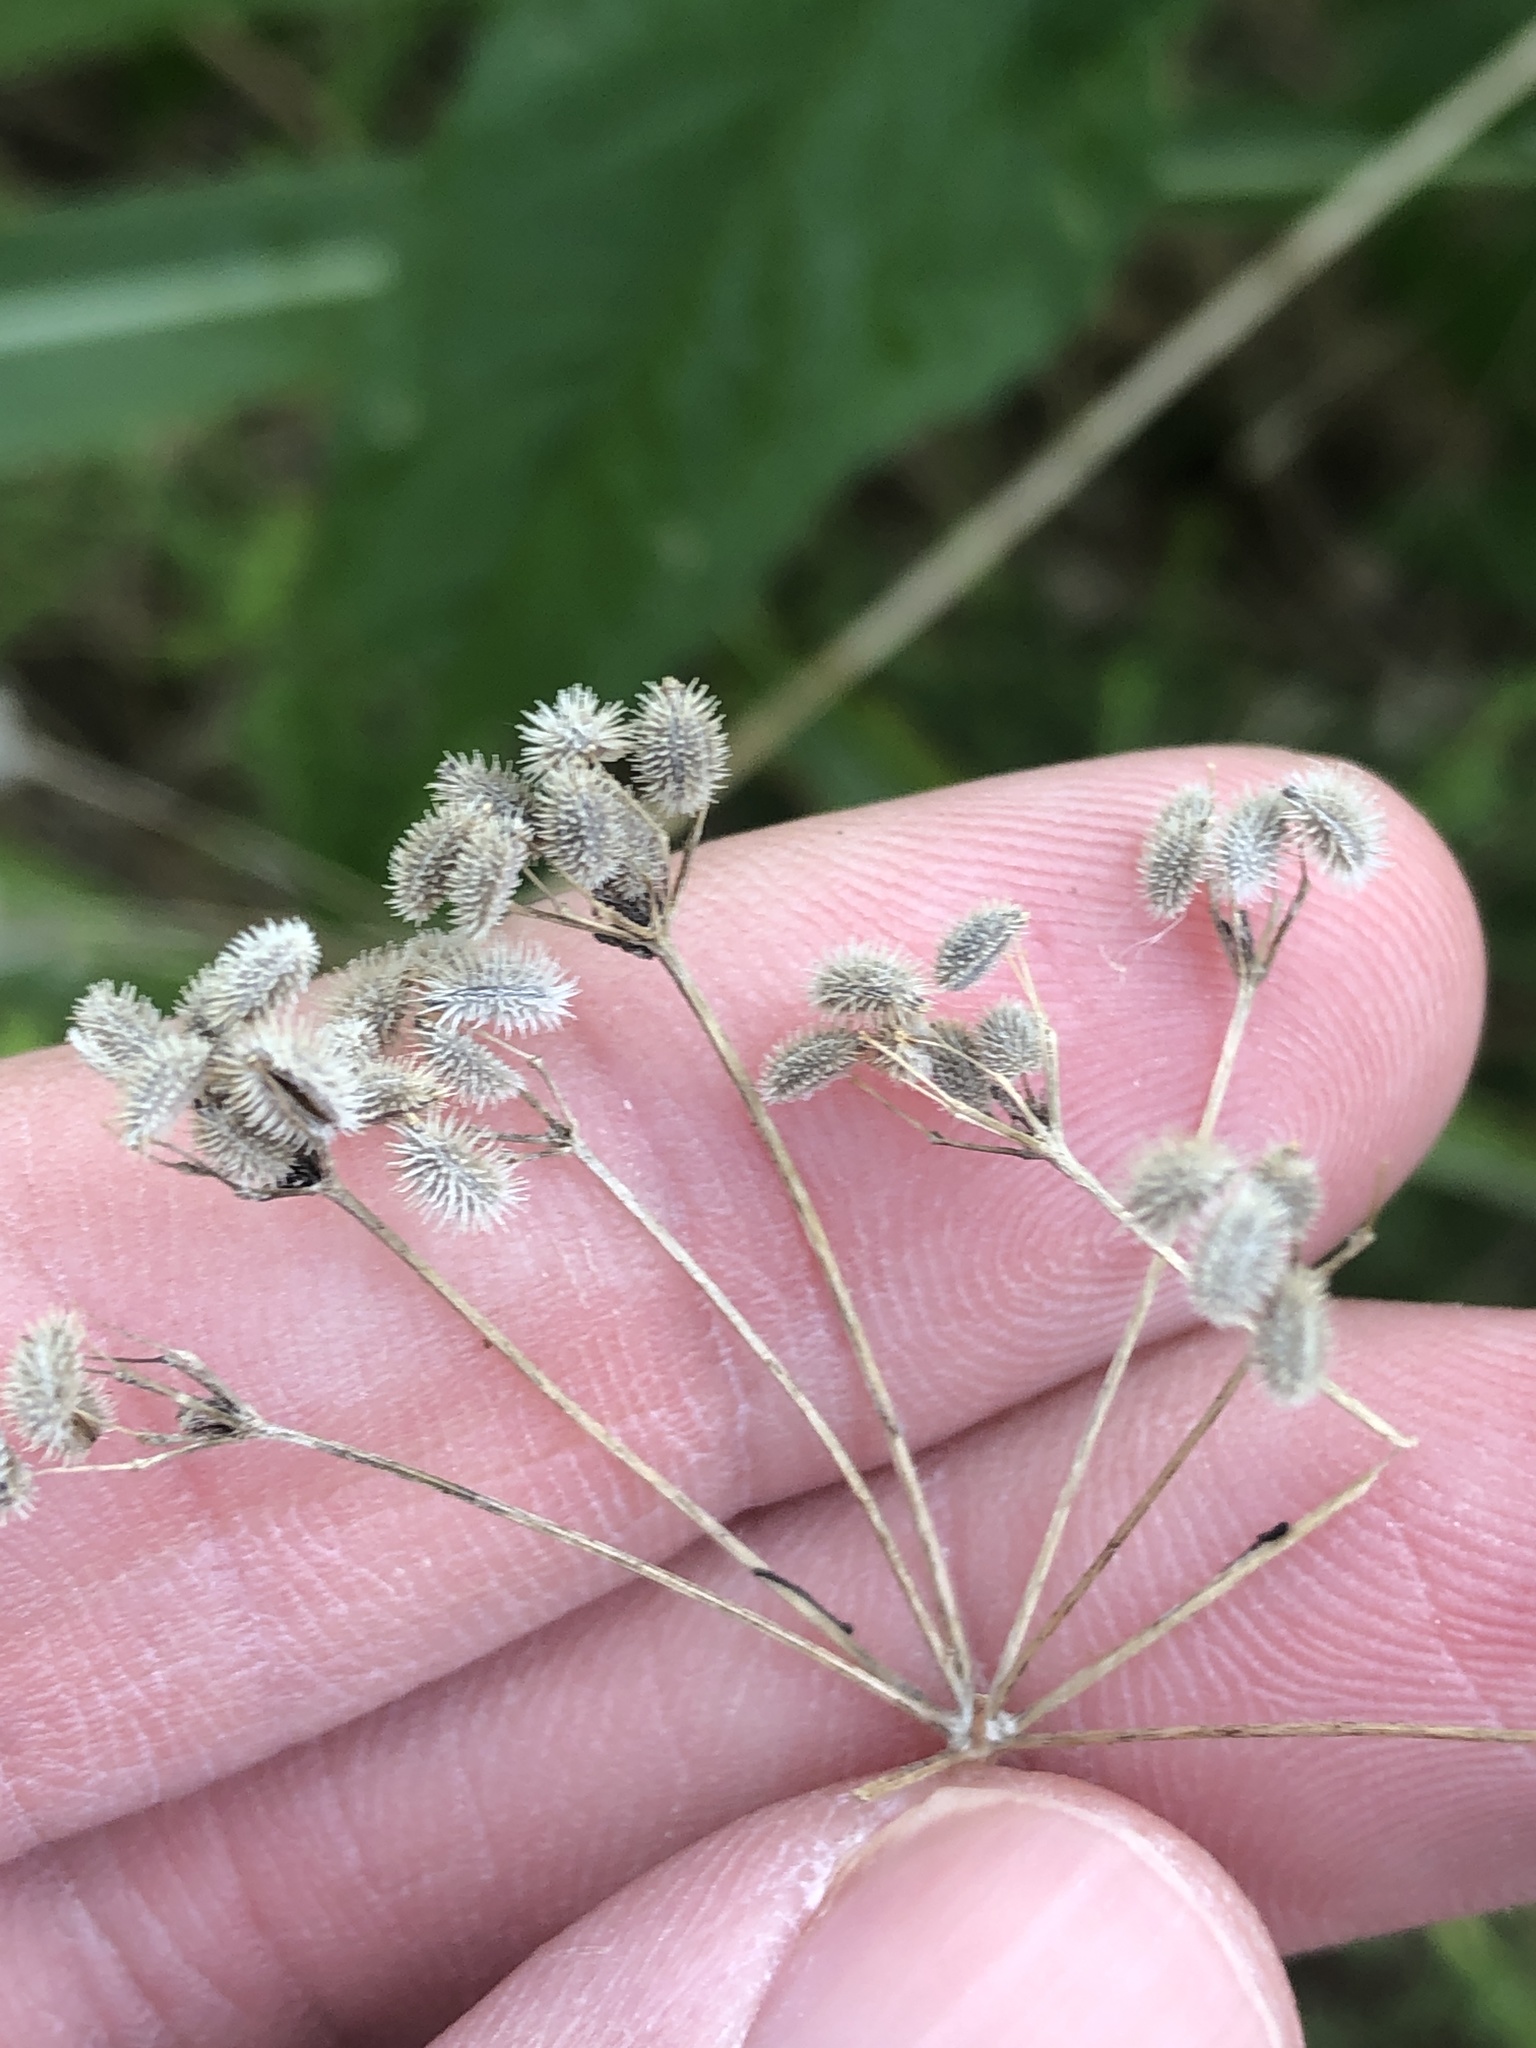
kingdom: Plantae
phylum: Tracheophyta
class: Magnoliopsida
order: Apiales
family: Apiaceae
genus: Torilis
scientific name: Torilis arvensis
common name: Spreading hedge-parsley
